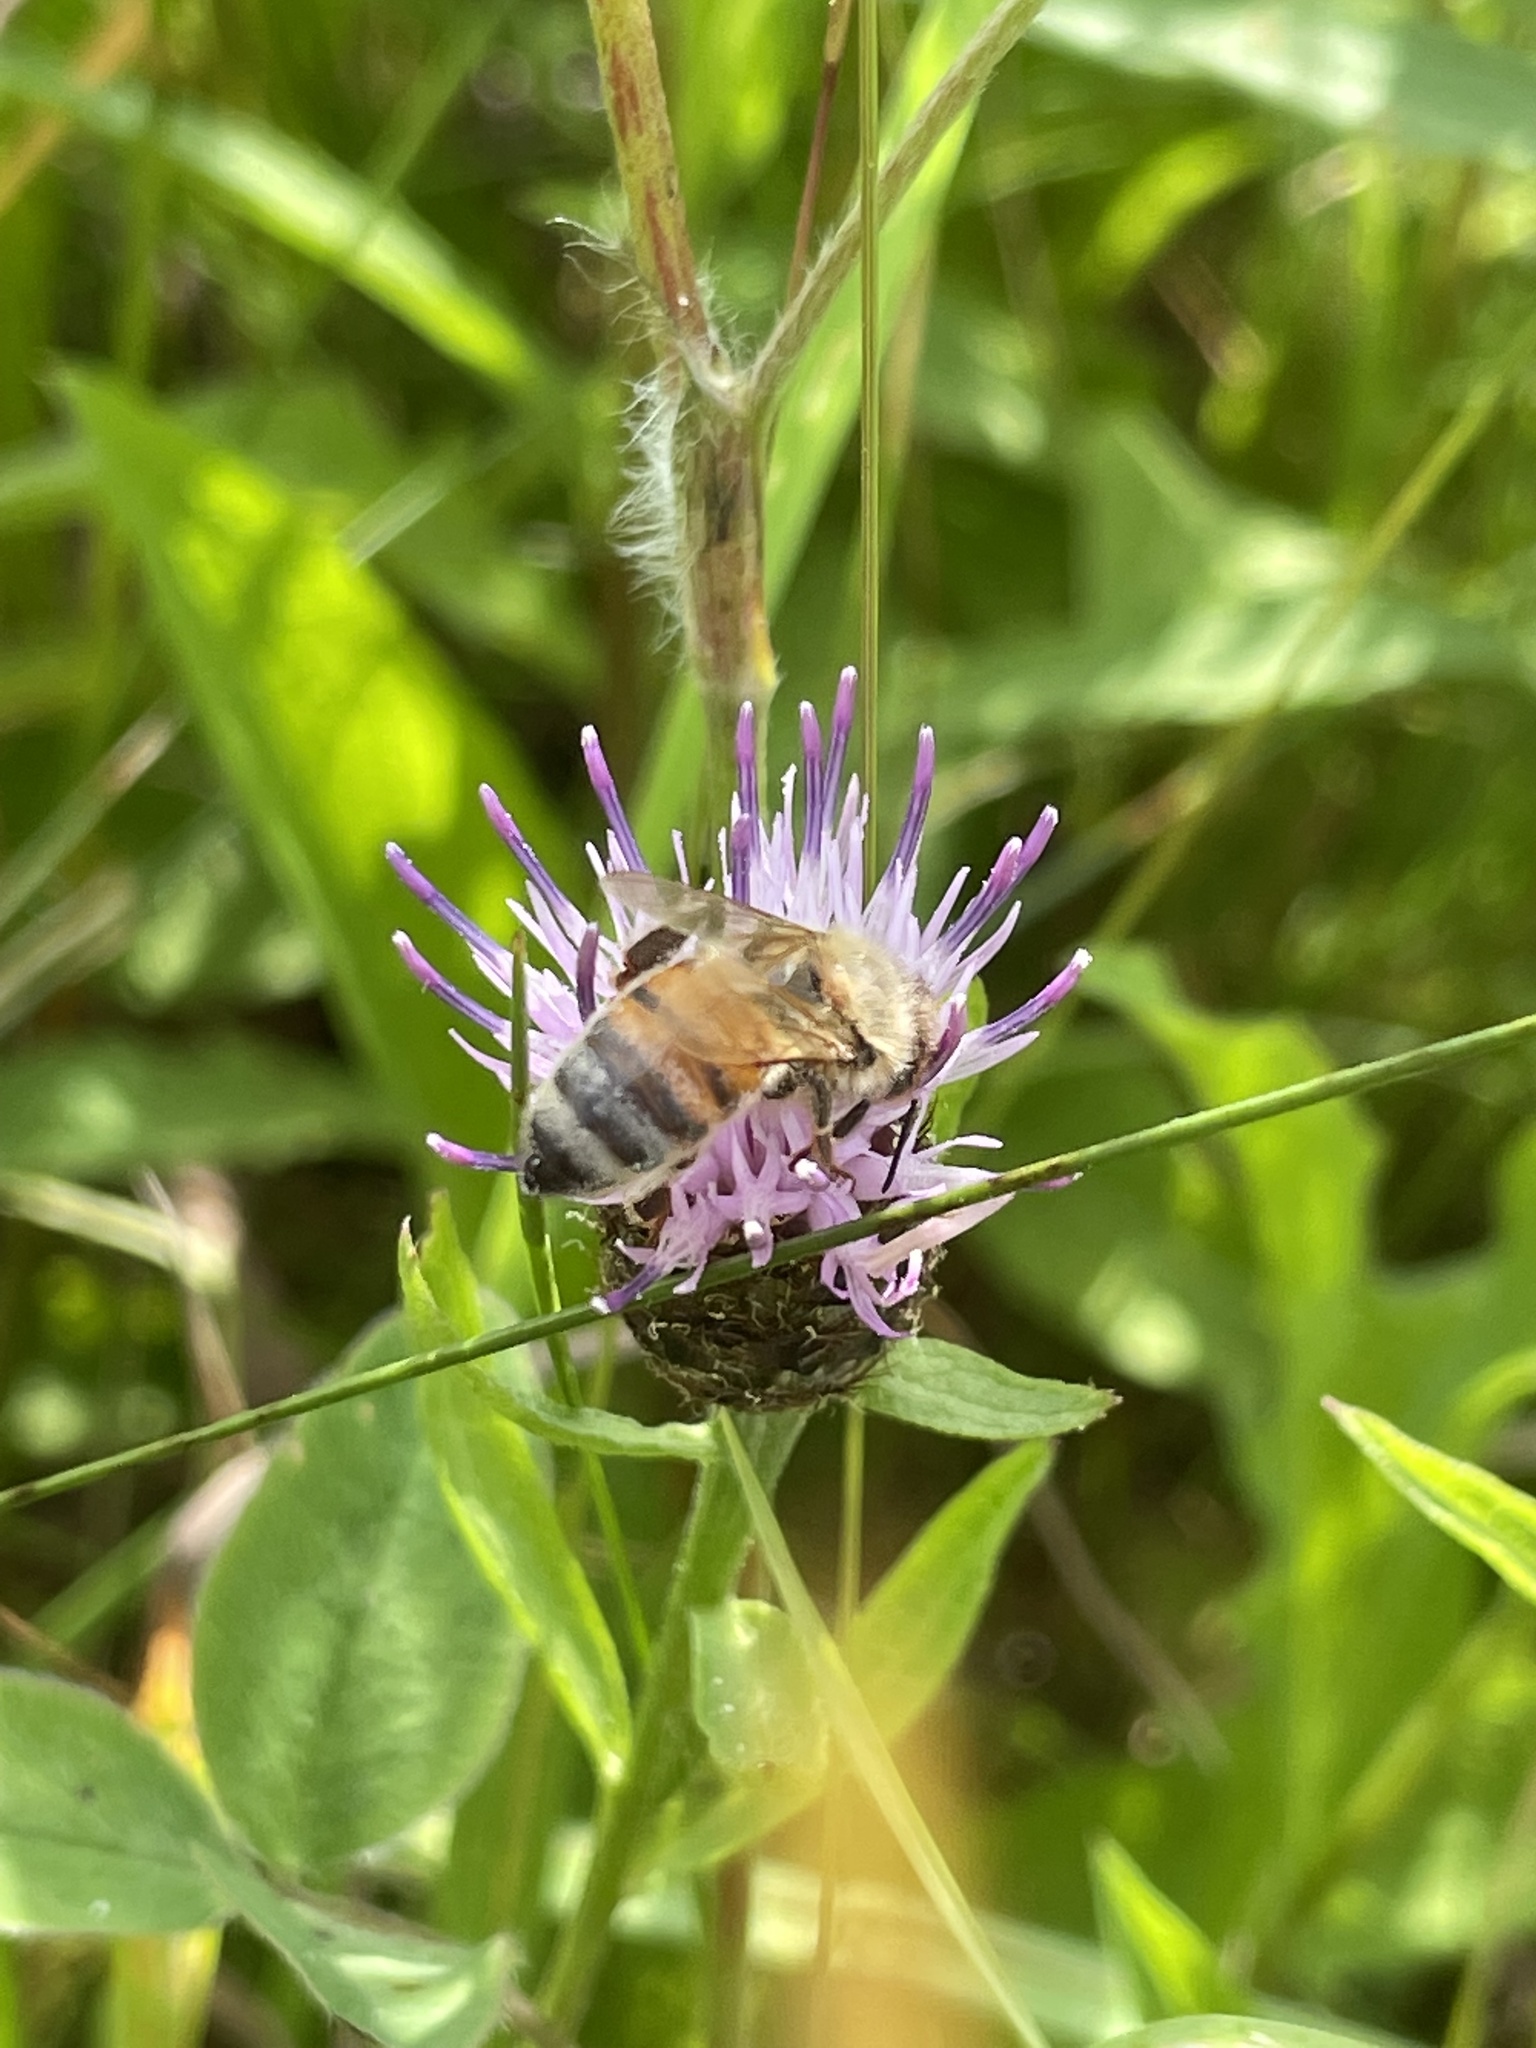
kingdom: Animalia
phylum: Arthropoda
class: Insecta
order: Hymenoptera
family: Apidae
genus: Apis
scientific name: Apis mellifera
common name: Honey bee
